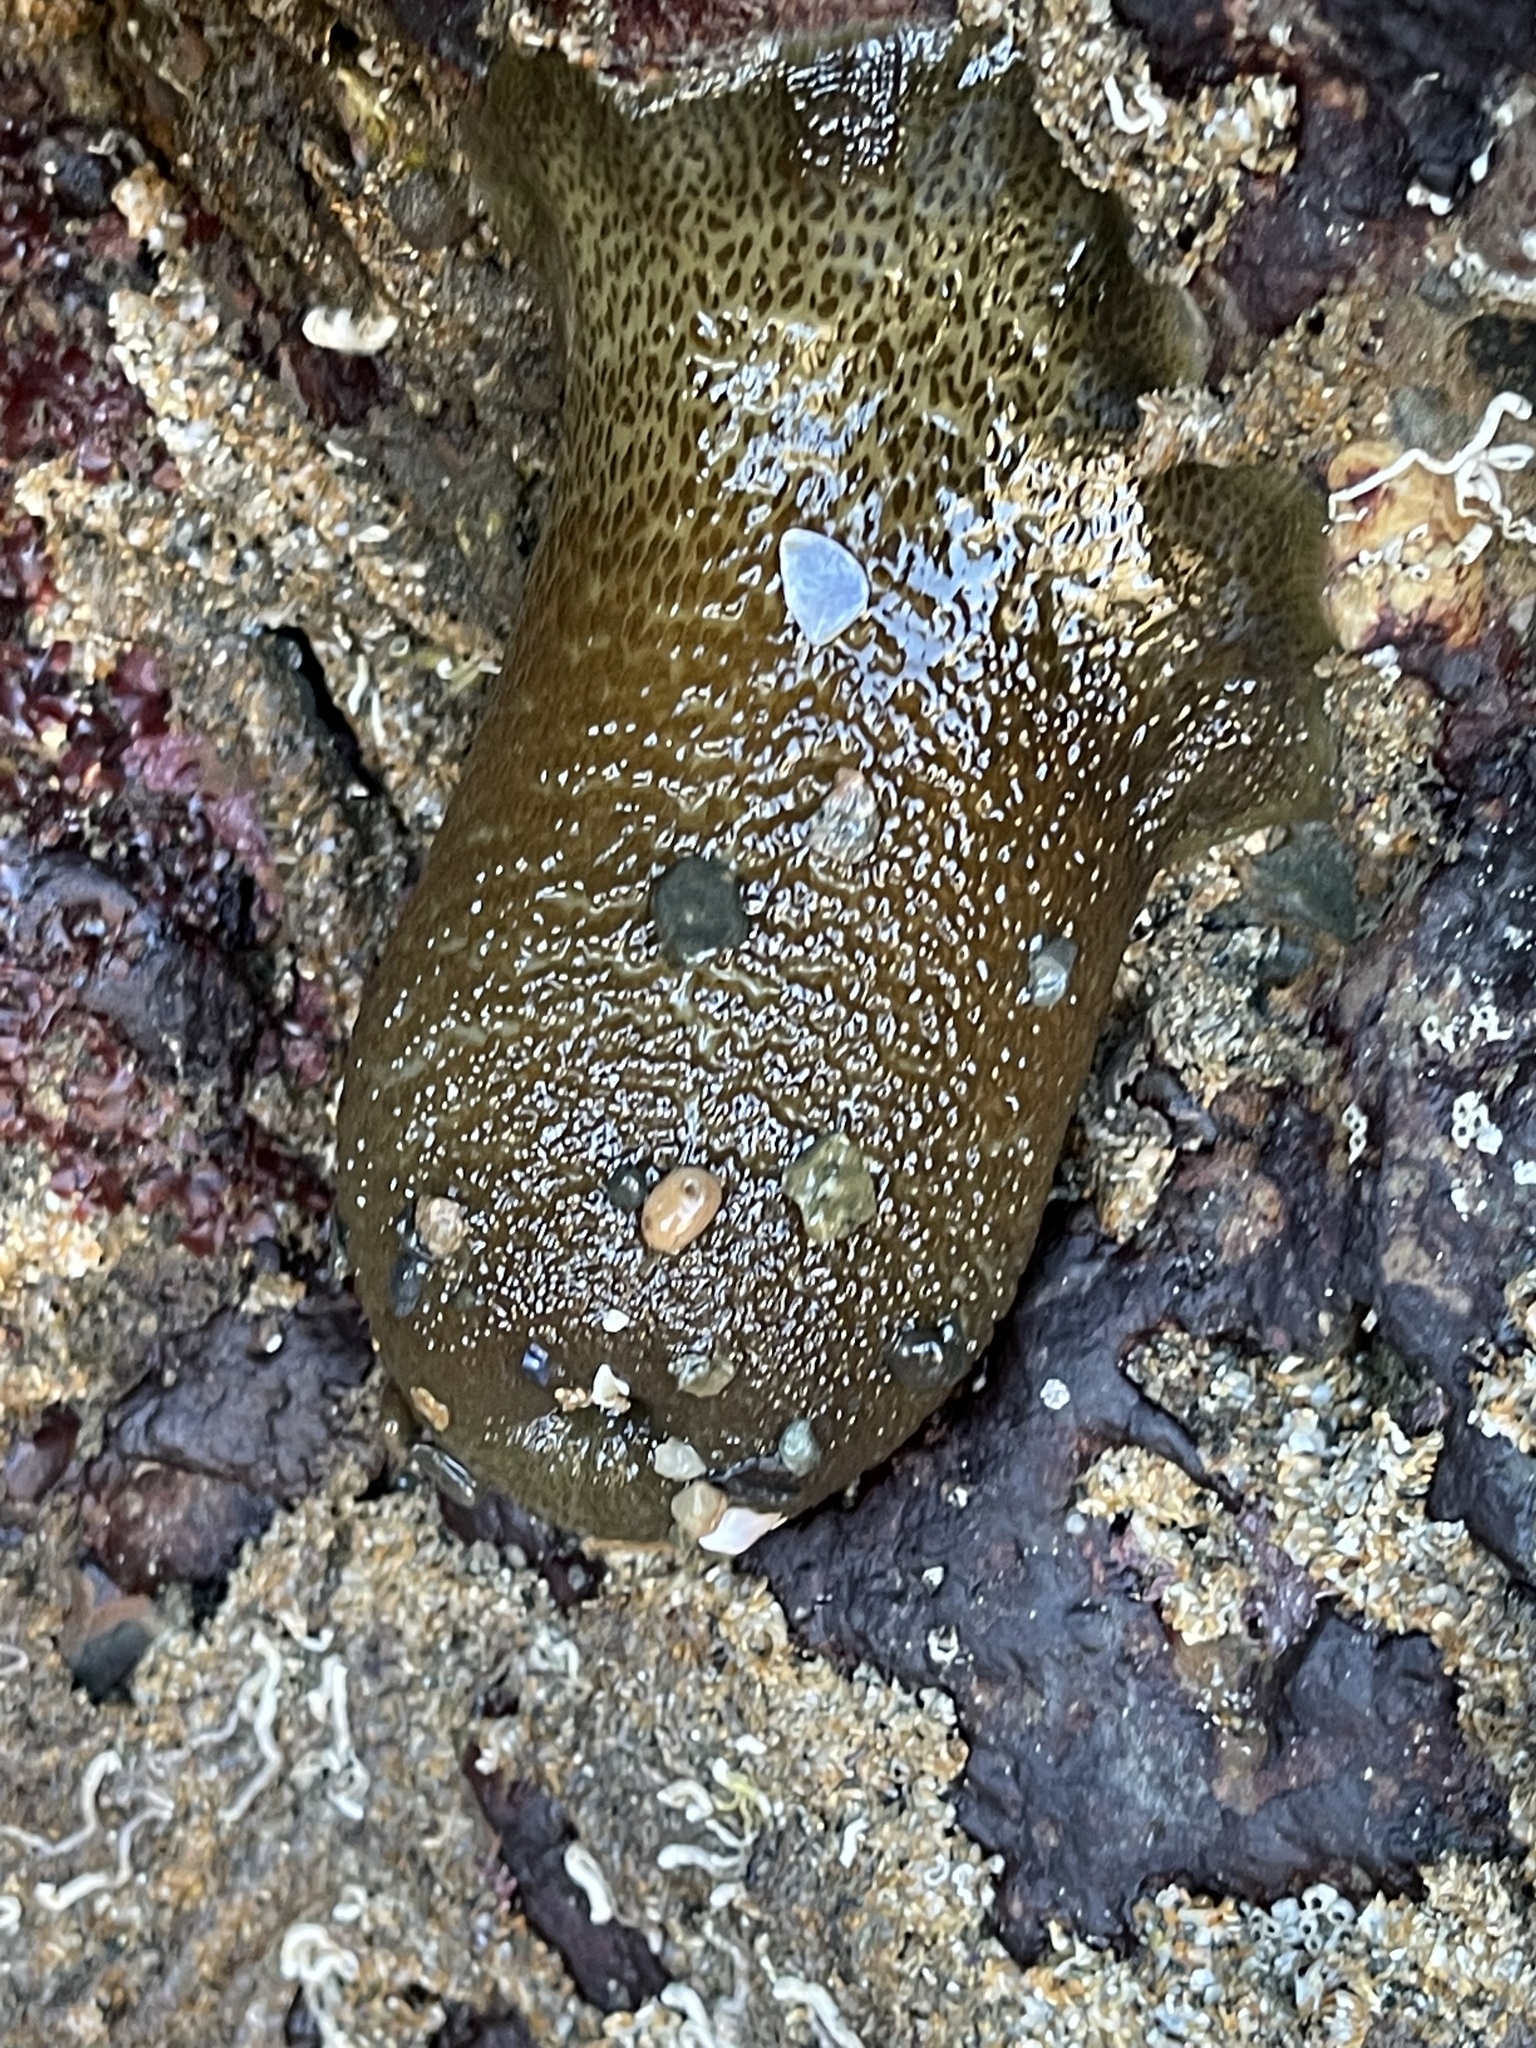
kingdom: Animalia
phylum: Cnidaria
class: Anthozoa
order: Actiniaria
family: Actiniidae
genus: Anthopleura
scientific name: Anthopleura xanthogrammica
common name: Giant green anemone
